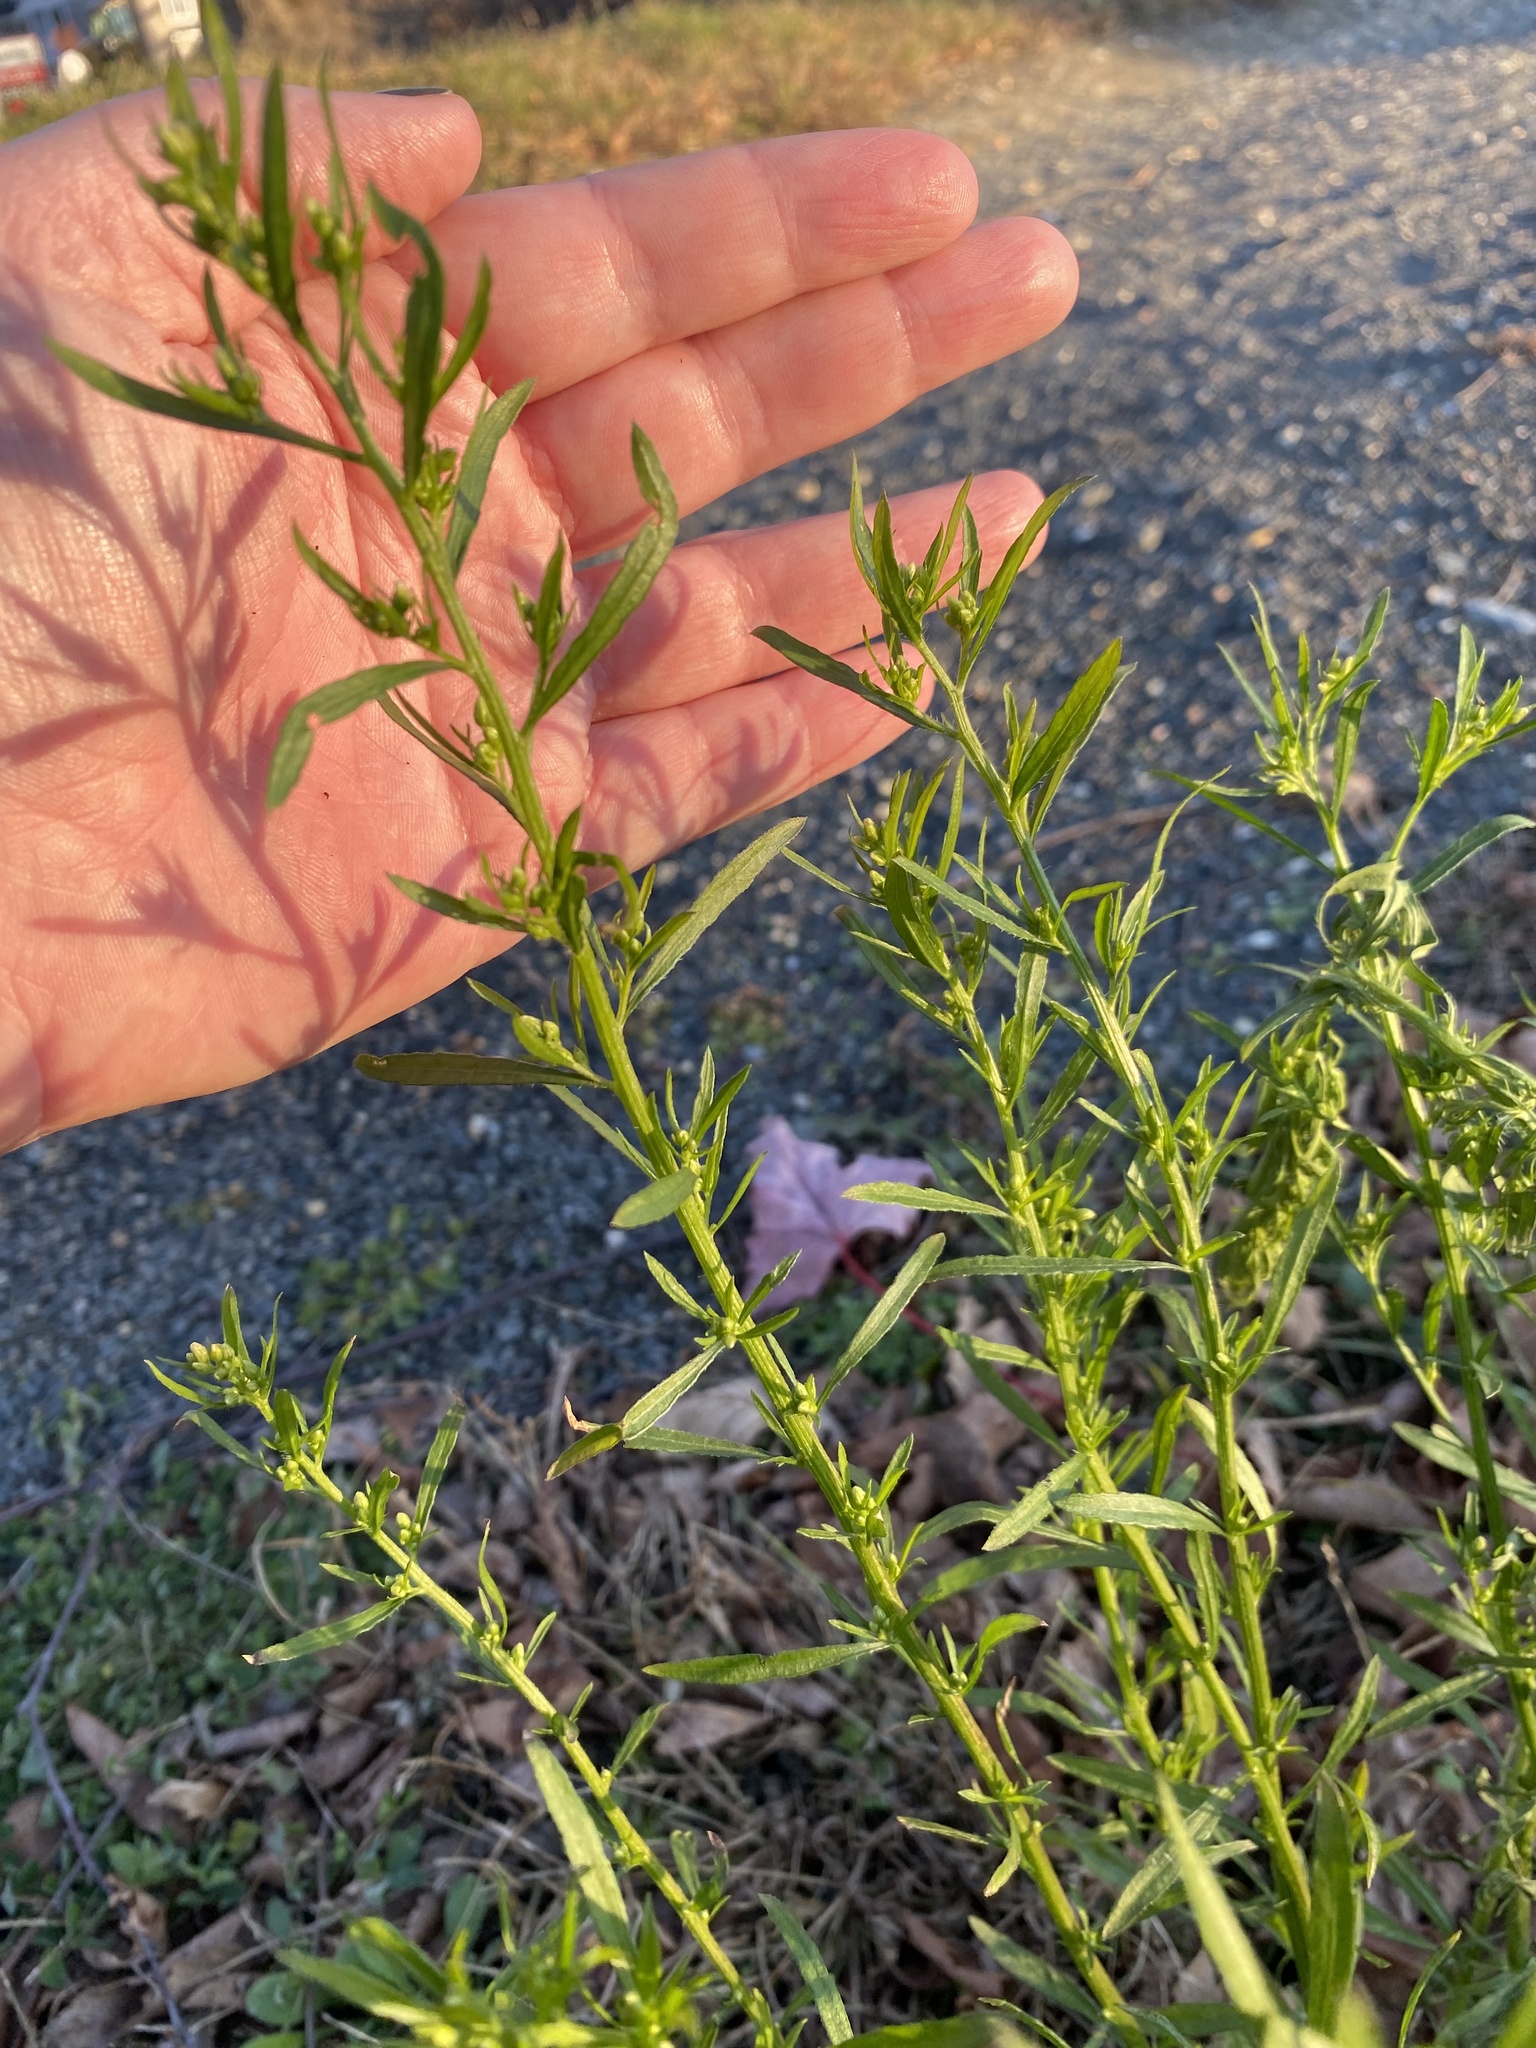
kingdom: Plantae
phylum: Tracheophyta
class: Magnoliopsida
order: Asterales
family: Asteraceae
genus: Erigeron
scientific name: Erigeron canadensis
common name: Canadian fleabane
